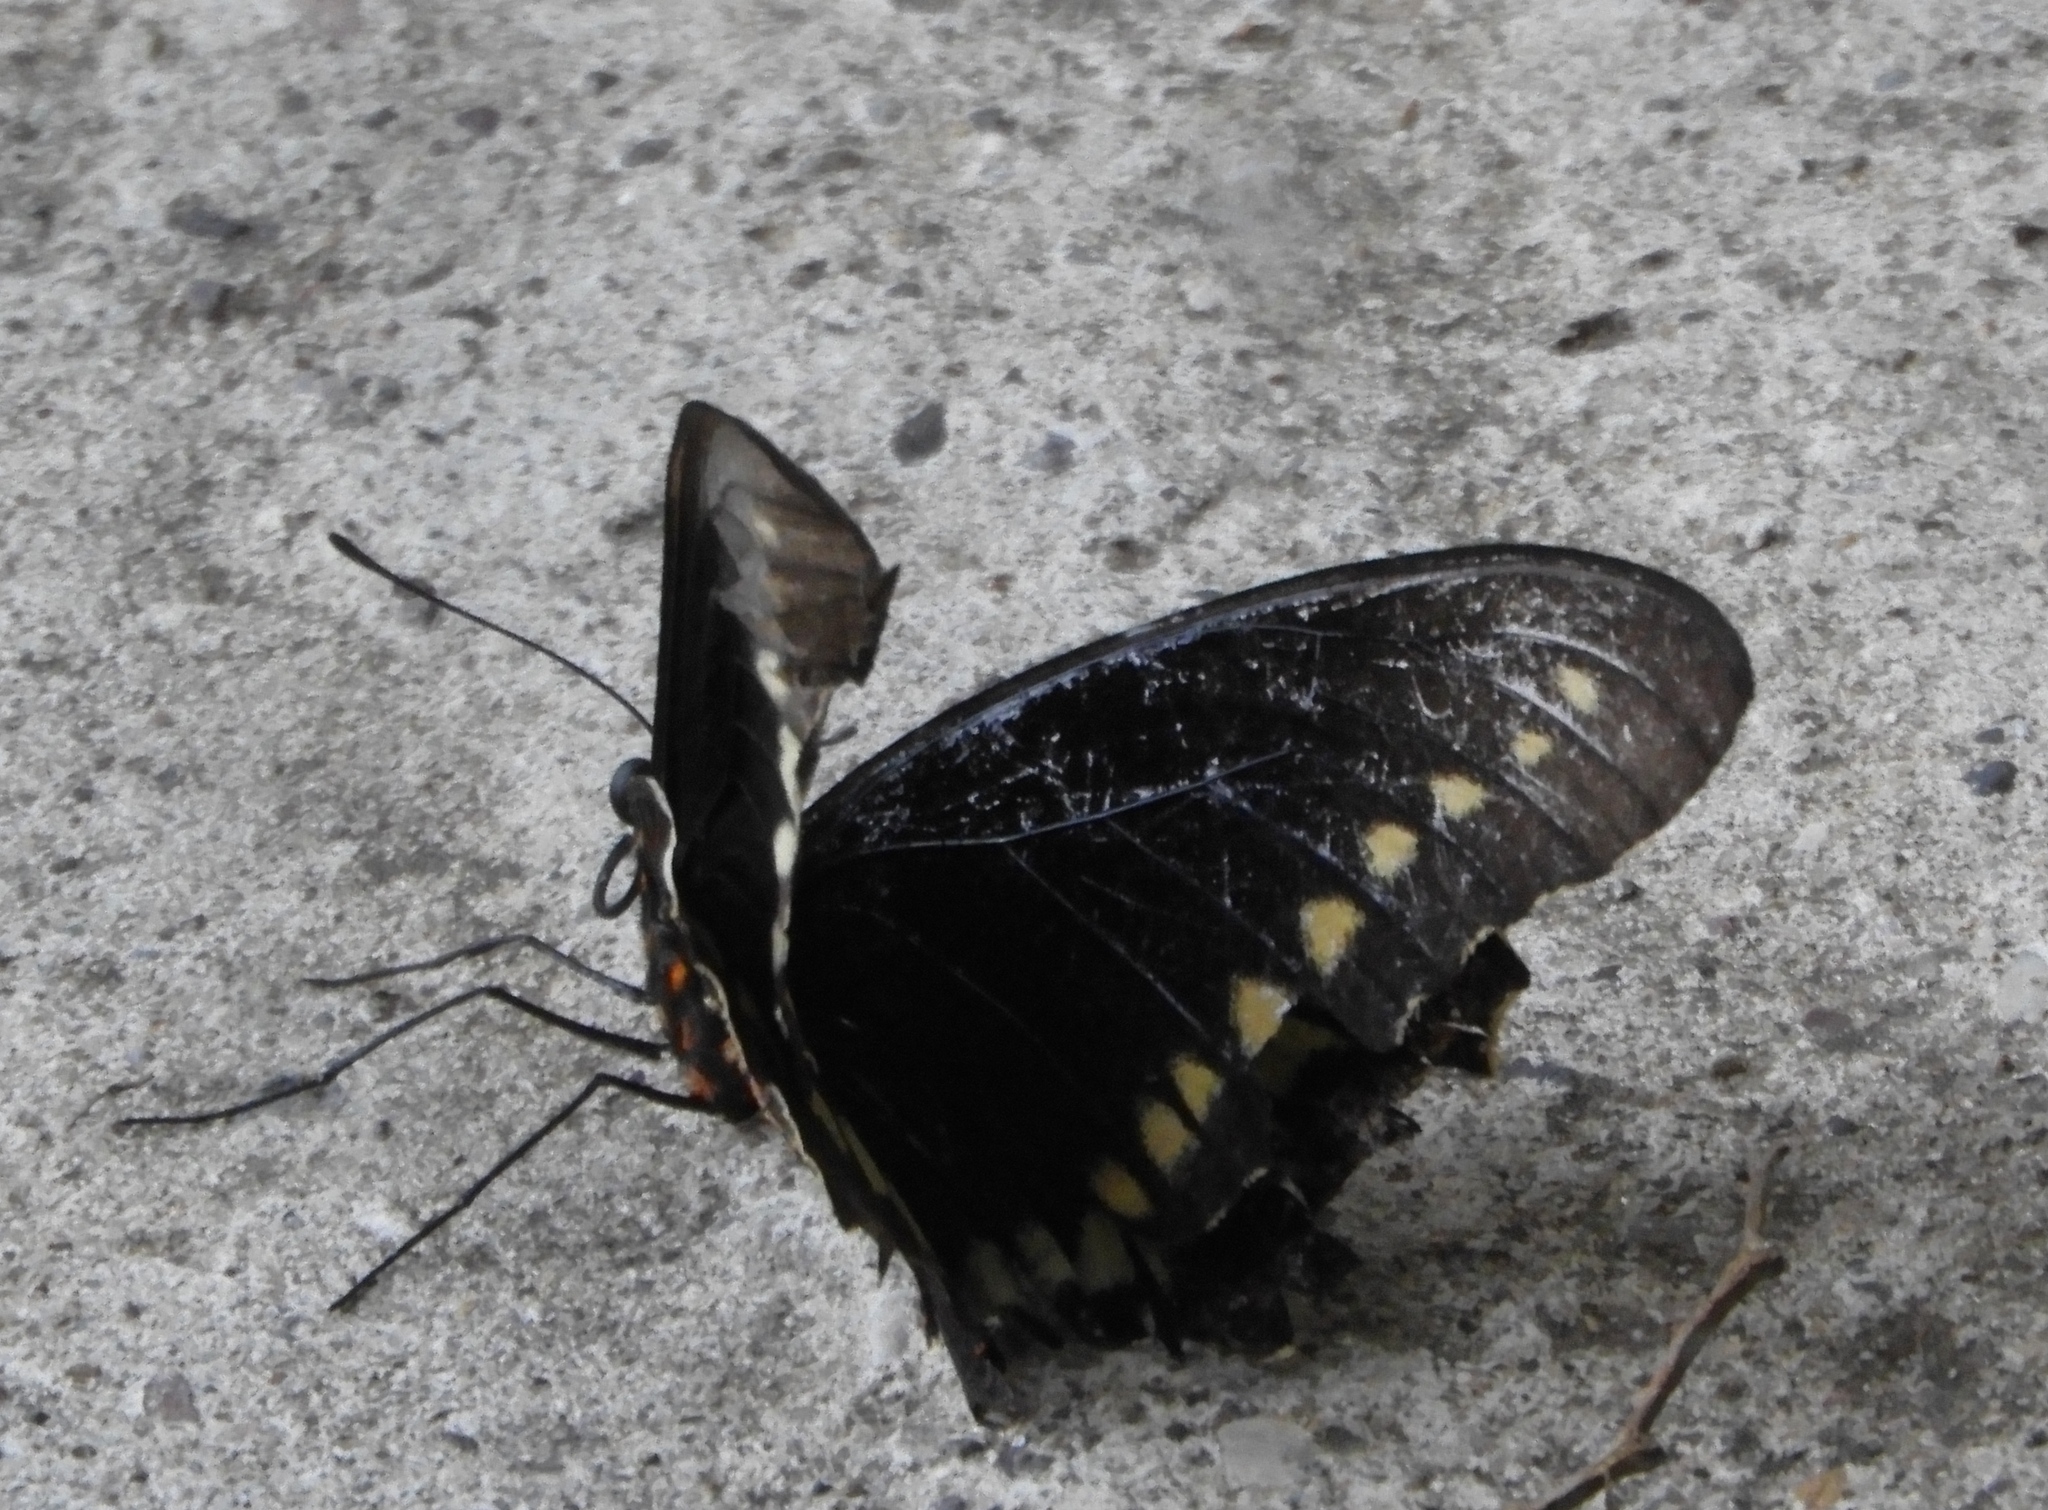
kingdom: Animalia
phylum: Arthropoda
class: Insecta
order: Lepidoptera
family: Papilionidae
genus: Battus
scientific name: Battus polydamas
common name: Polydamas swallowtail
